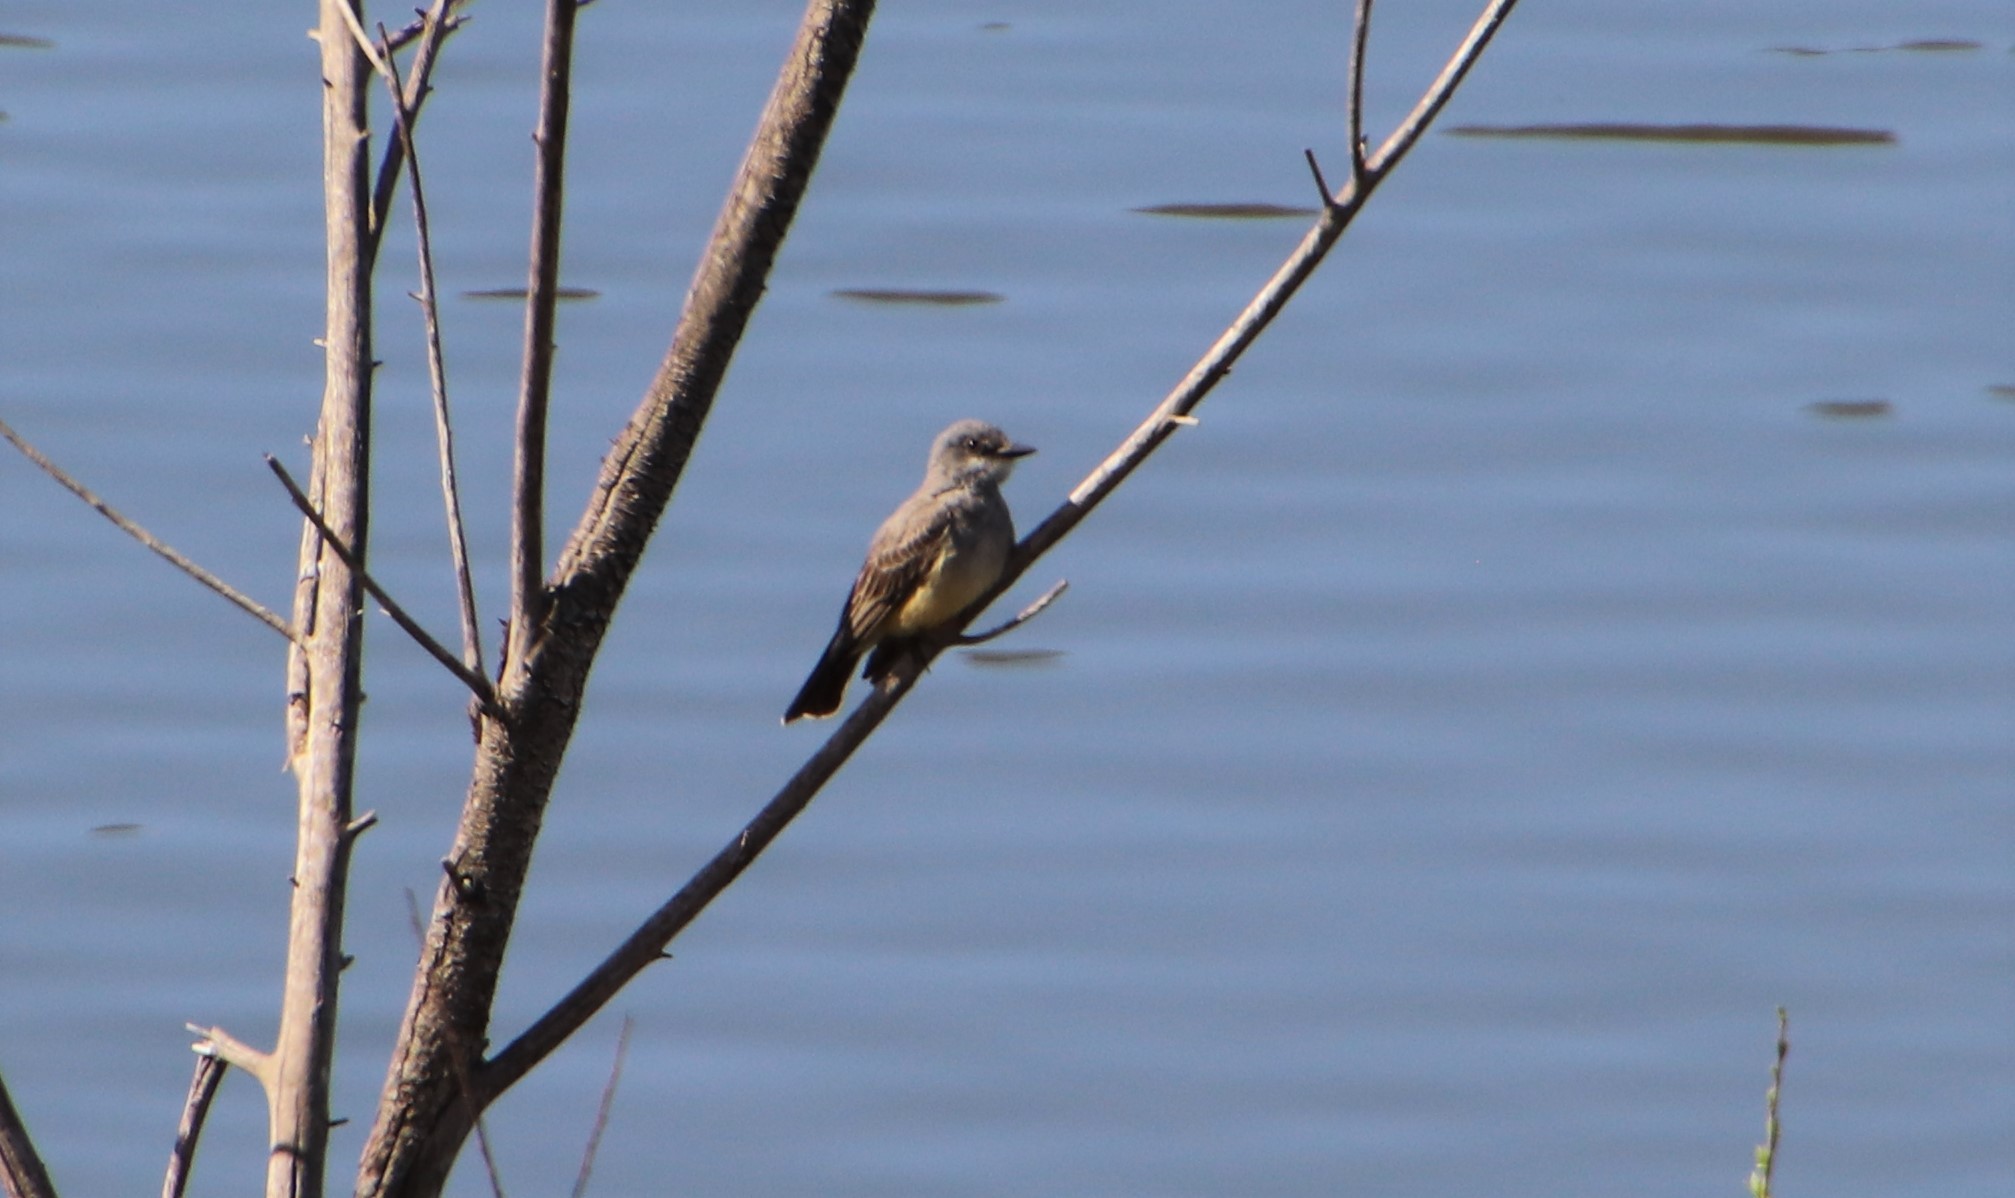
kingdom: Animalia
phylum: Chordata
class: Aves
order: Passeriformes
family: Tyrannidae
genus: Tyrannus
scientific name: Tyrannus vociferans
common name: Cassin's kingbird
